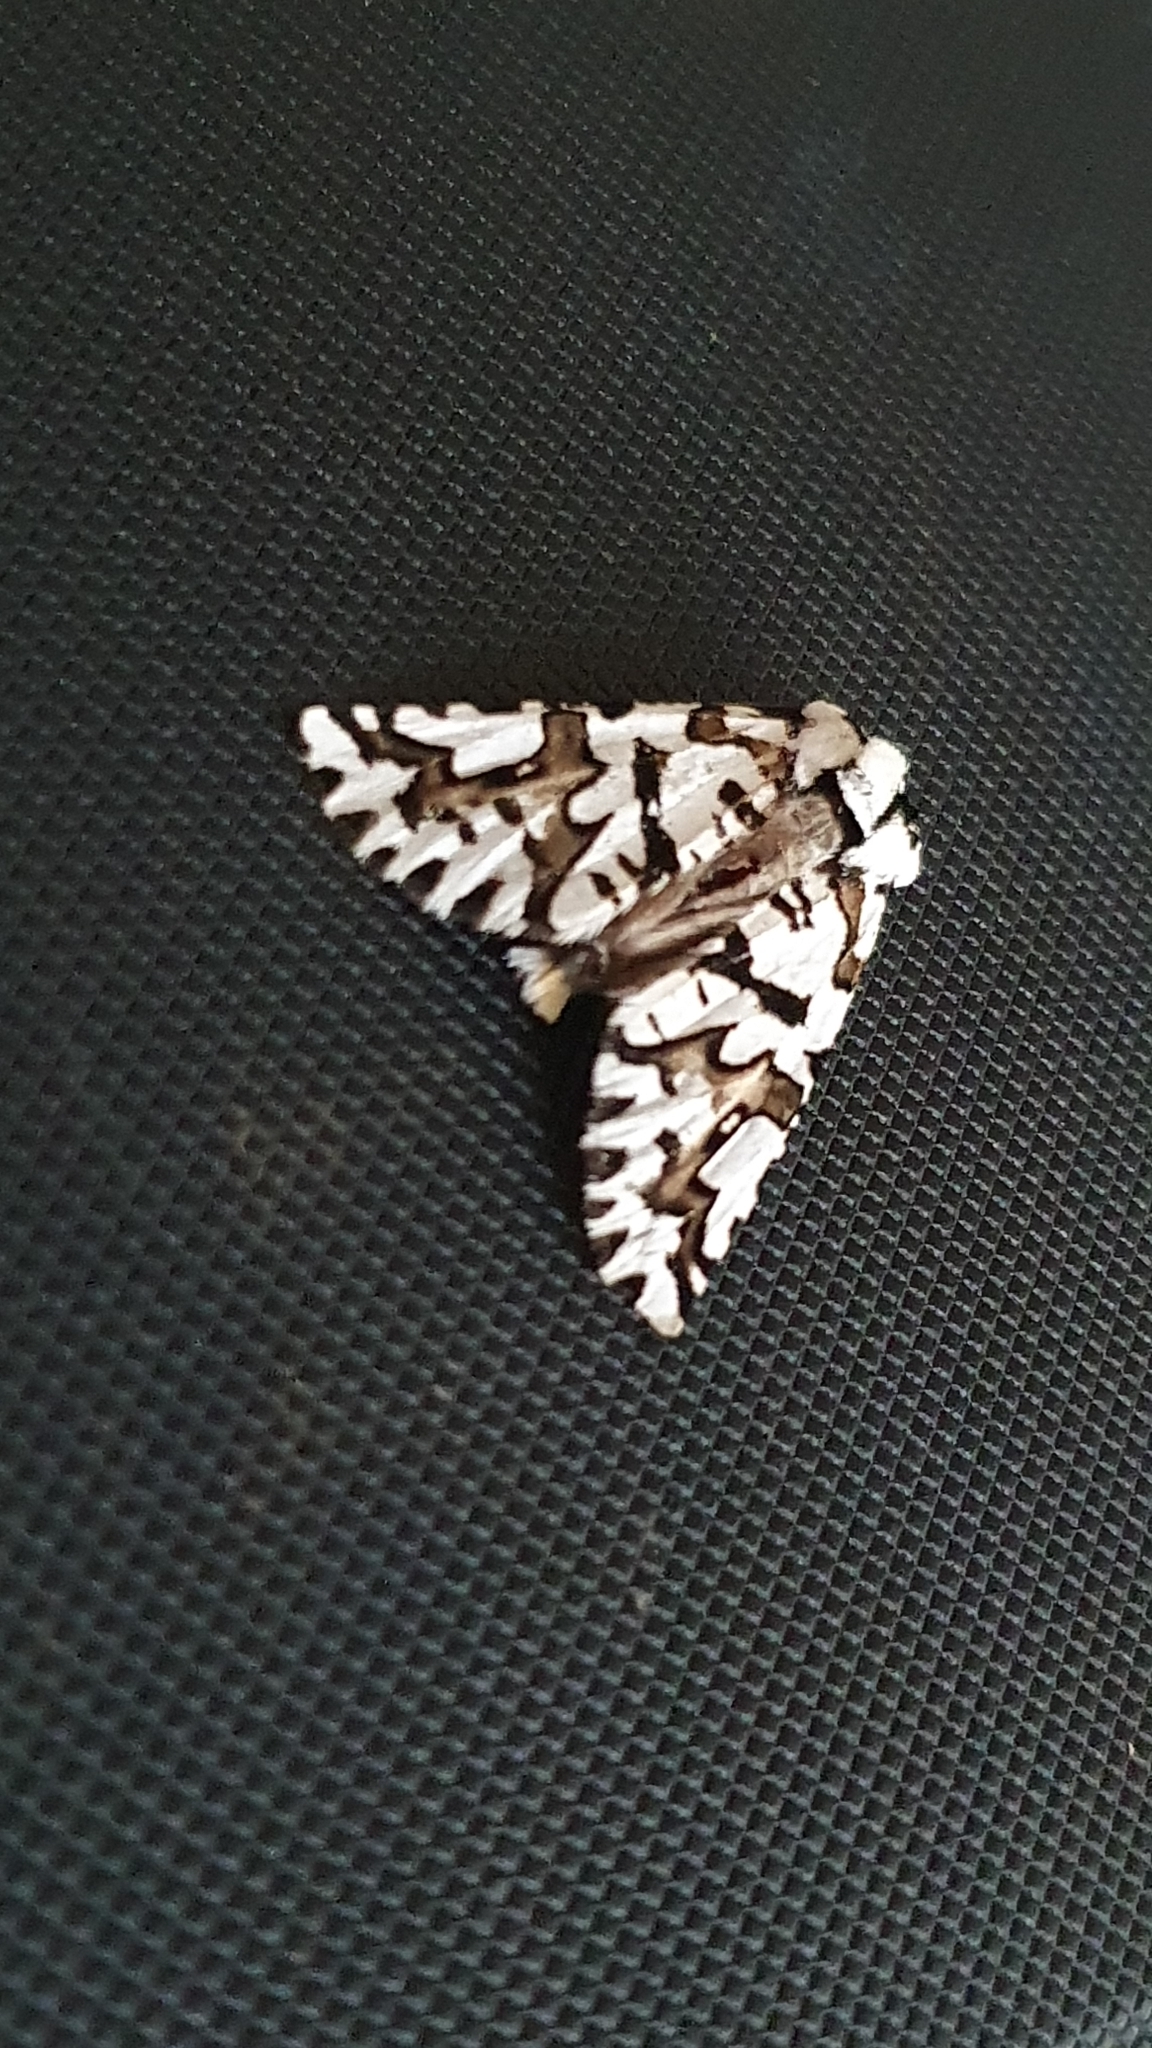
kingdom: Animalia
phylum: Arthropoda
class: Insecta
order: Lepidoptera
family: Geometridae
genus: Declana
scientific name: Declana
